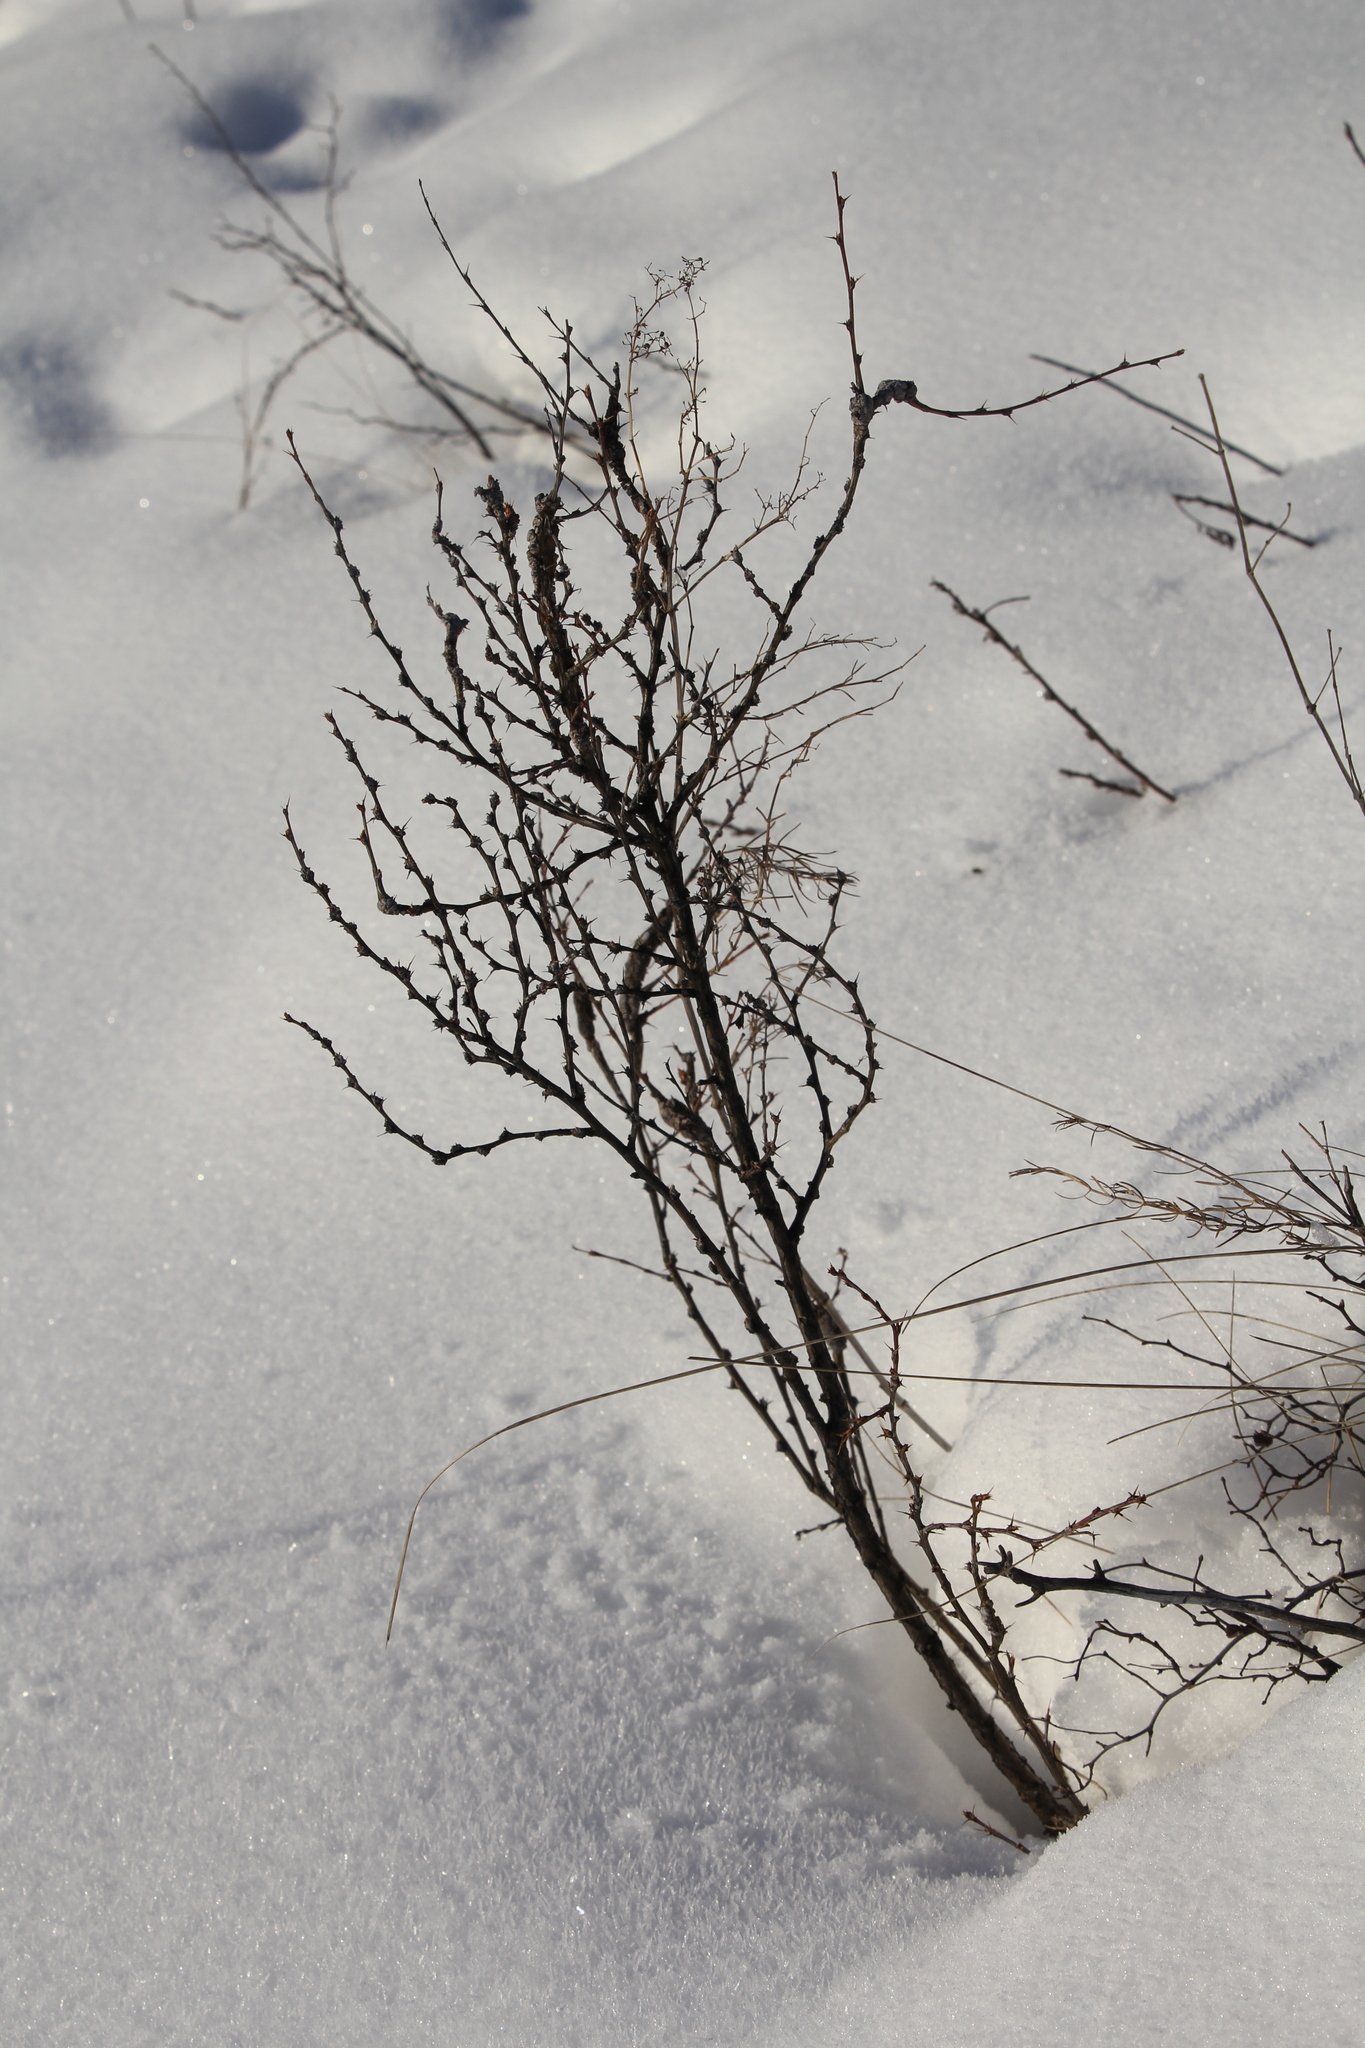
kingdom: Plantae
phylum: Tracheophyta
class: Magnoliopsida
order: Fabales
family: Fabaceae
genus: Caragana
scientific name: Caragana pygmaea
